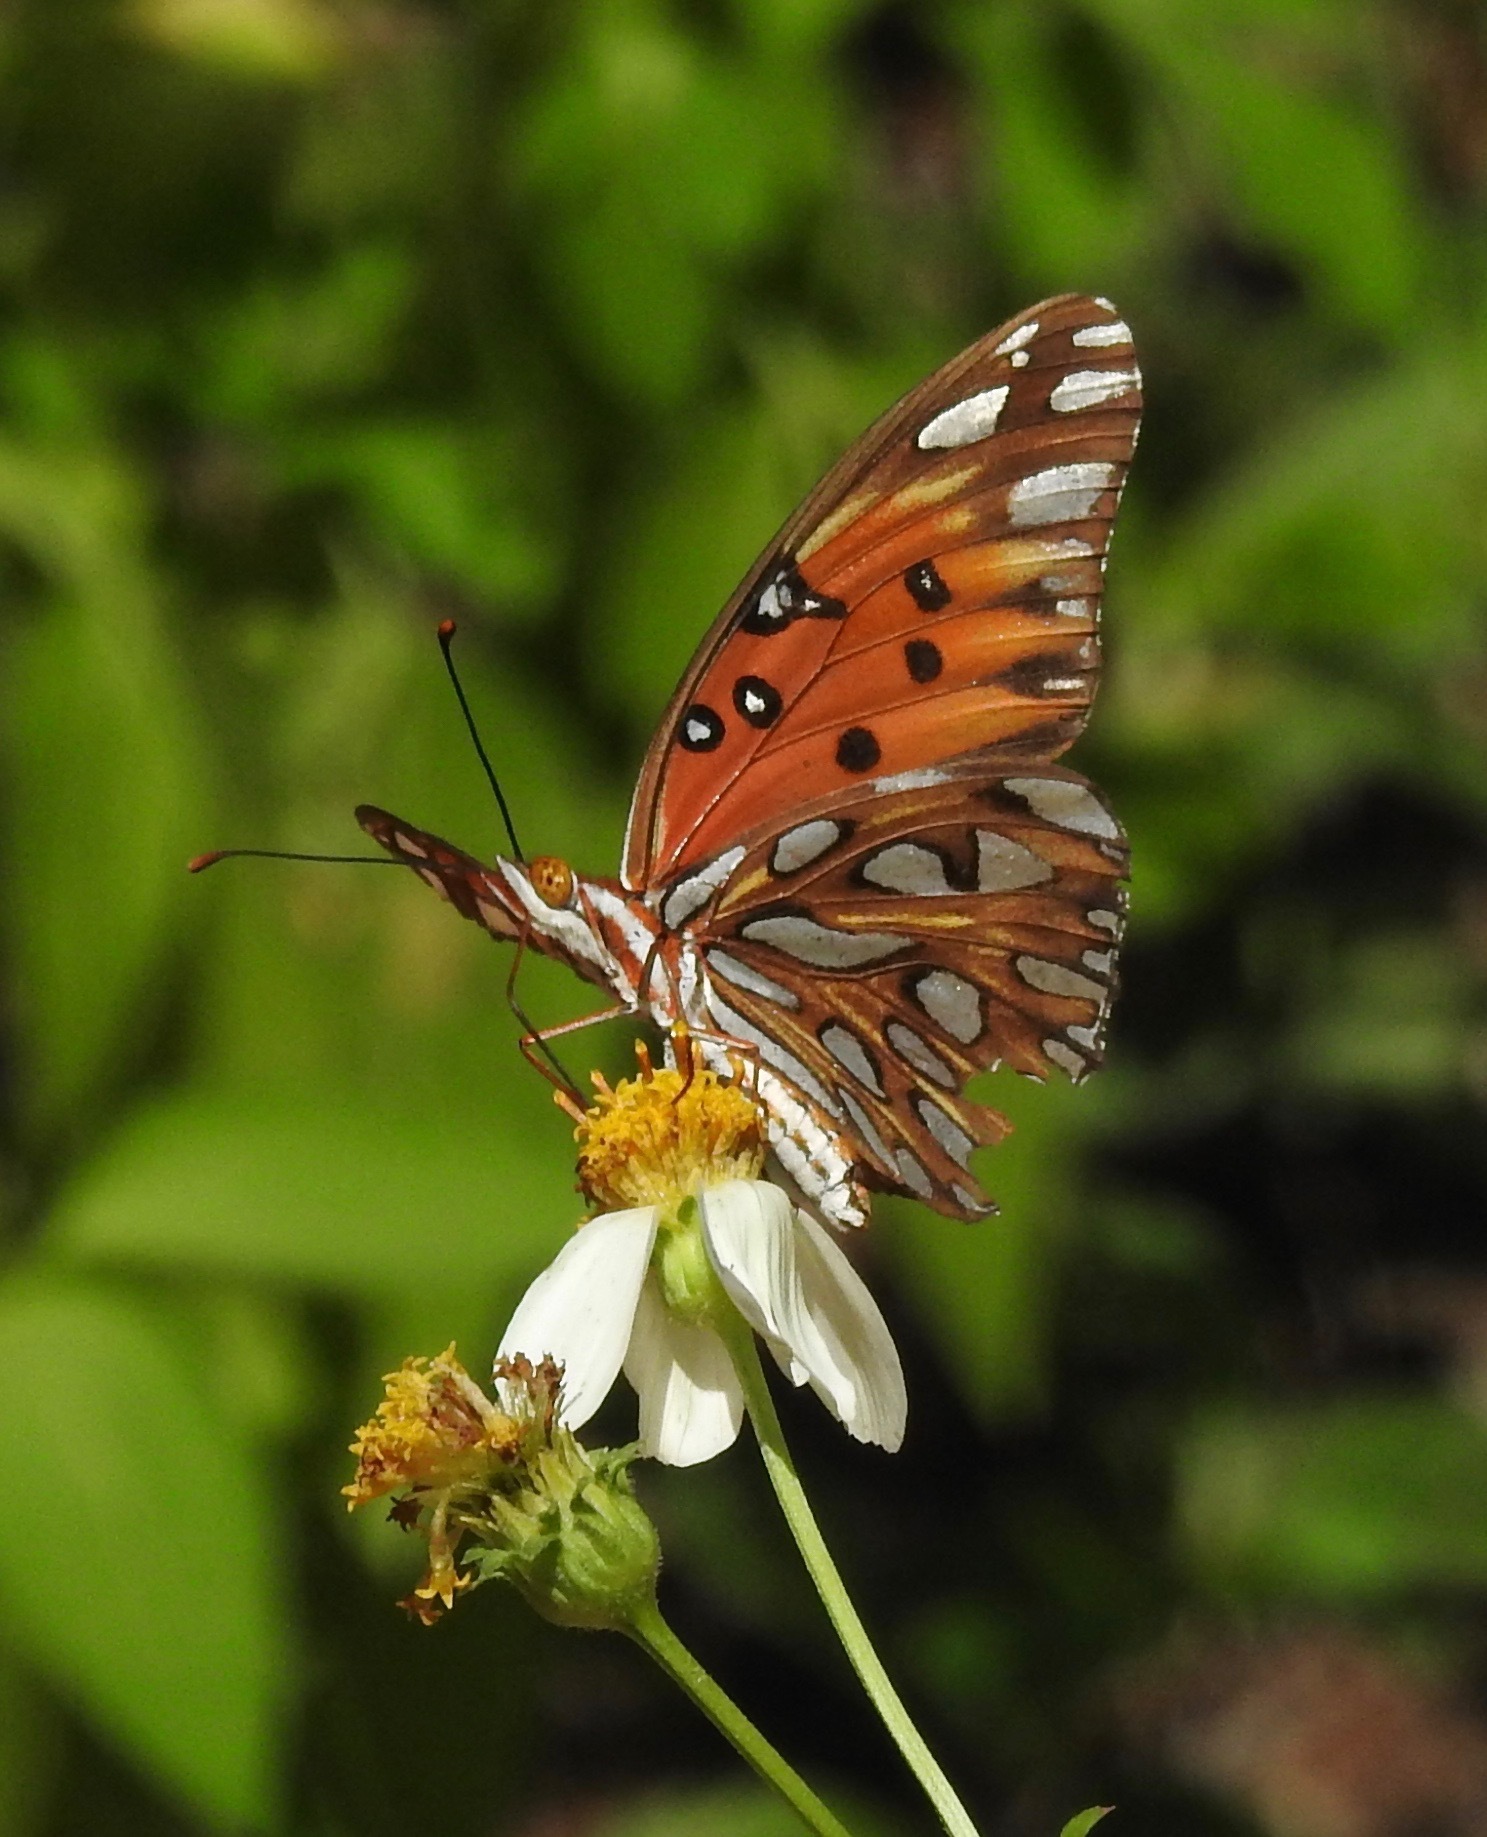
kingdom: Animalia
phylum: Arthropoda
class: Insecta
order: Lepidoptera
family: Nymphalidae
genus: Dione
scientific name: Dione vanillae
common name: Gulf fritillary
